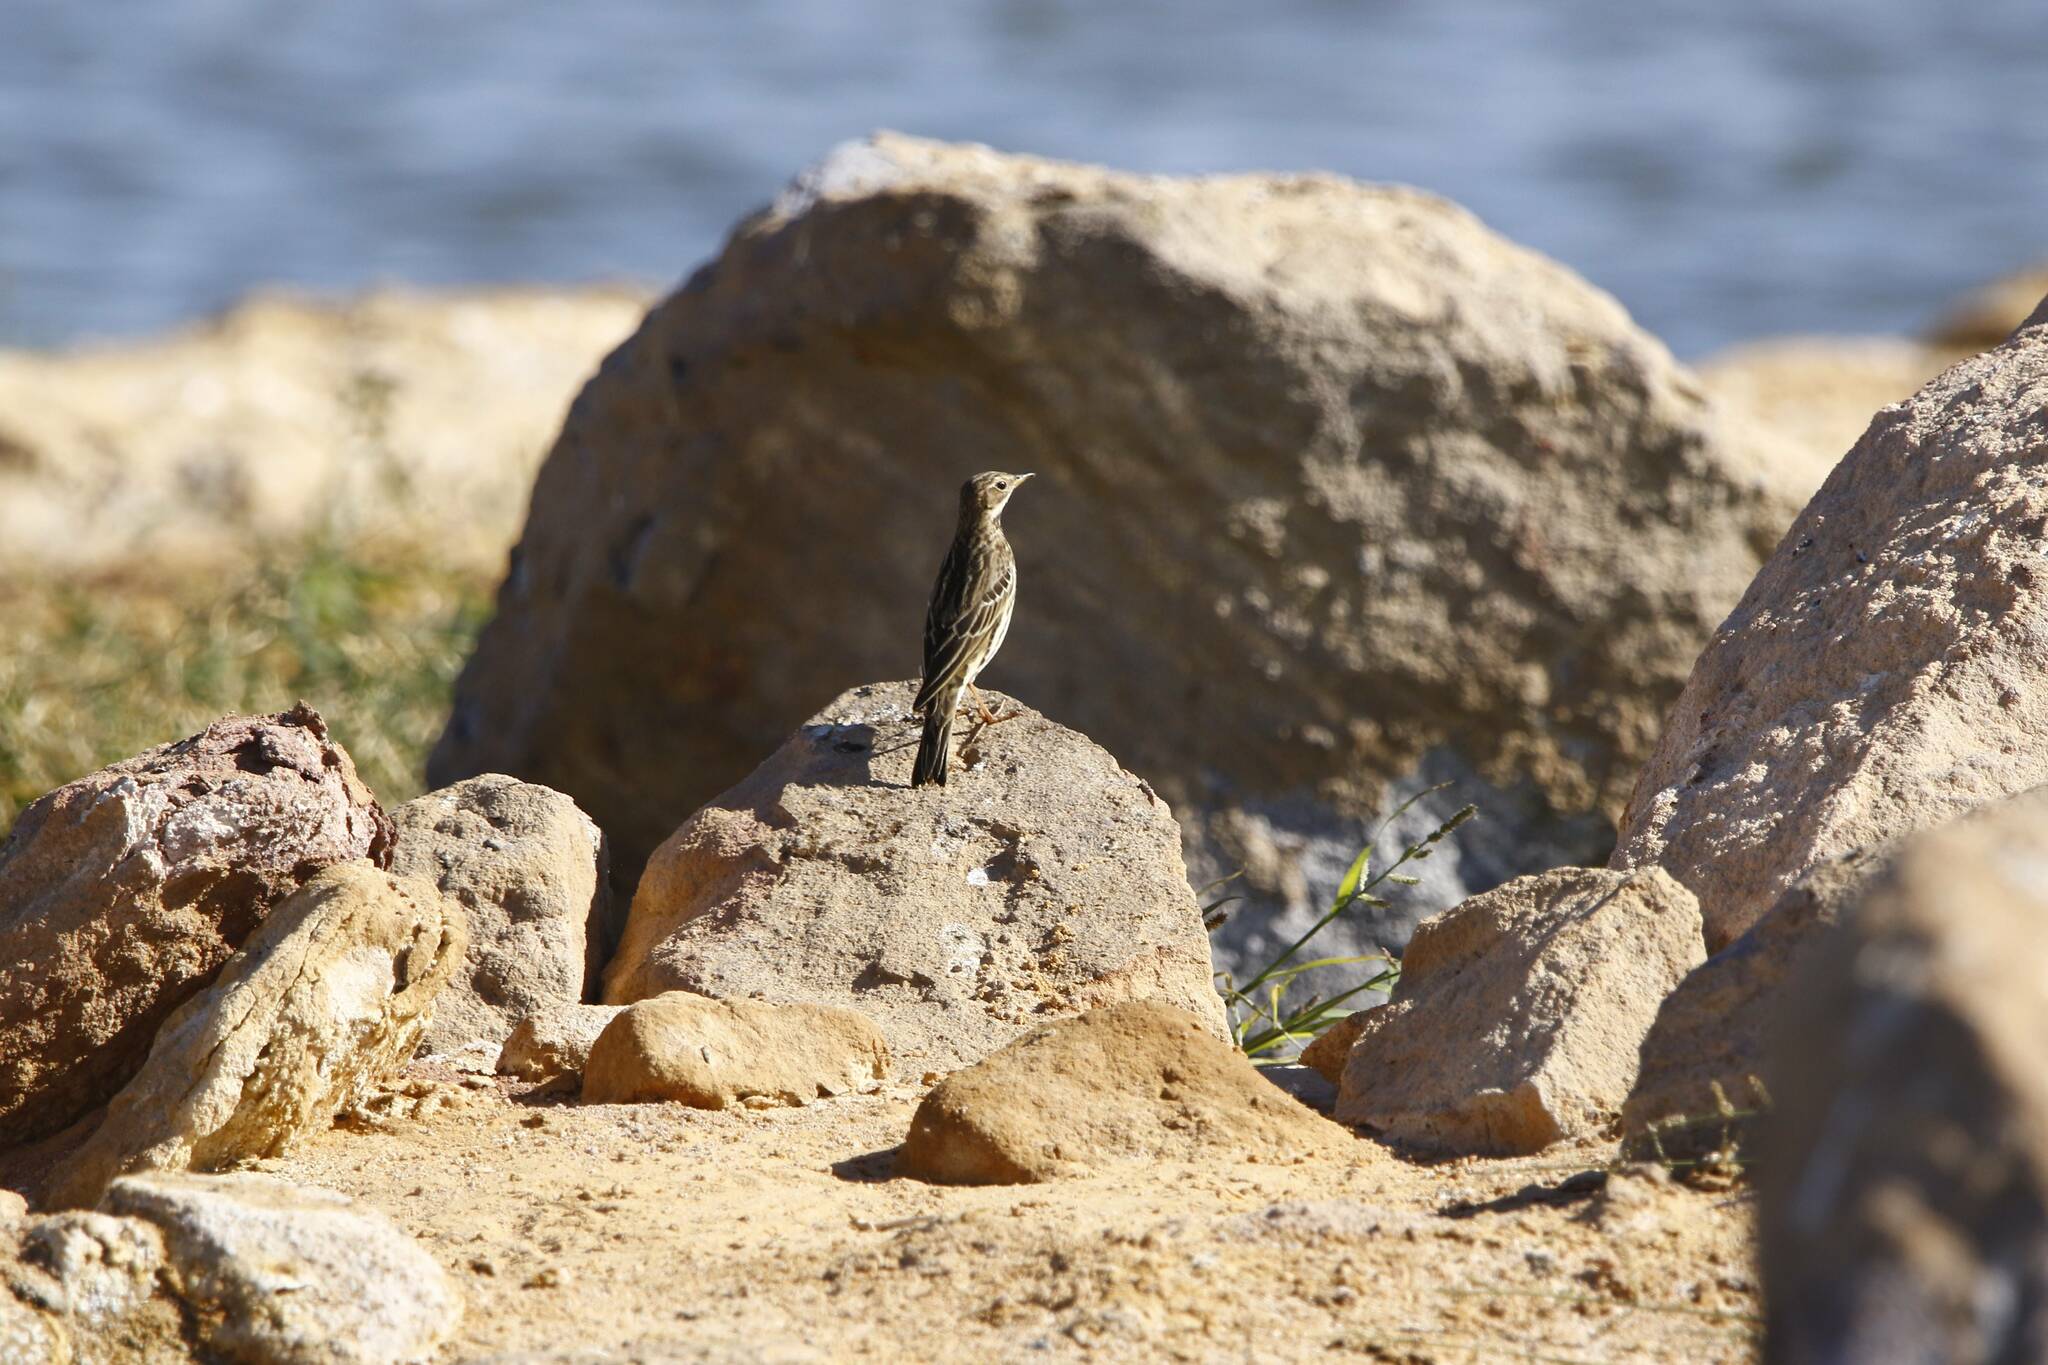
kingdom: Animalia
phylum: Chordata
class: Aves
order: Passeriformes
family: Motacillidae
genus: Anthus
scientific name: Anthus cervinus
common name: Red-throated pipit
